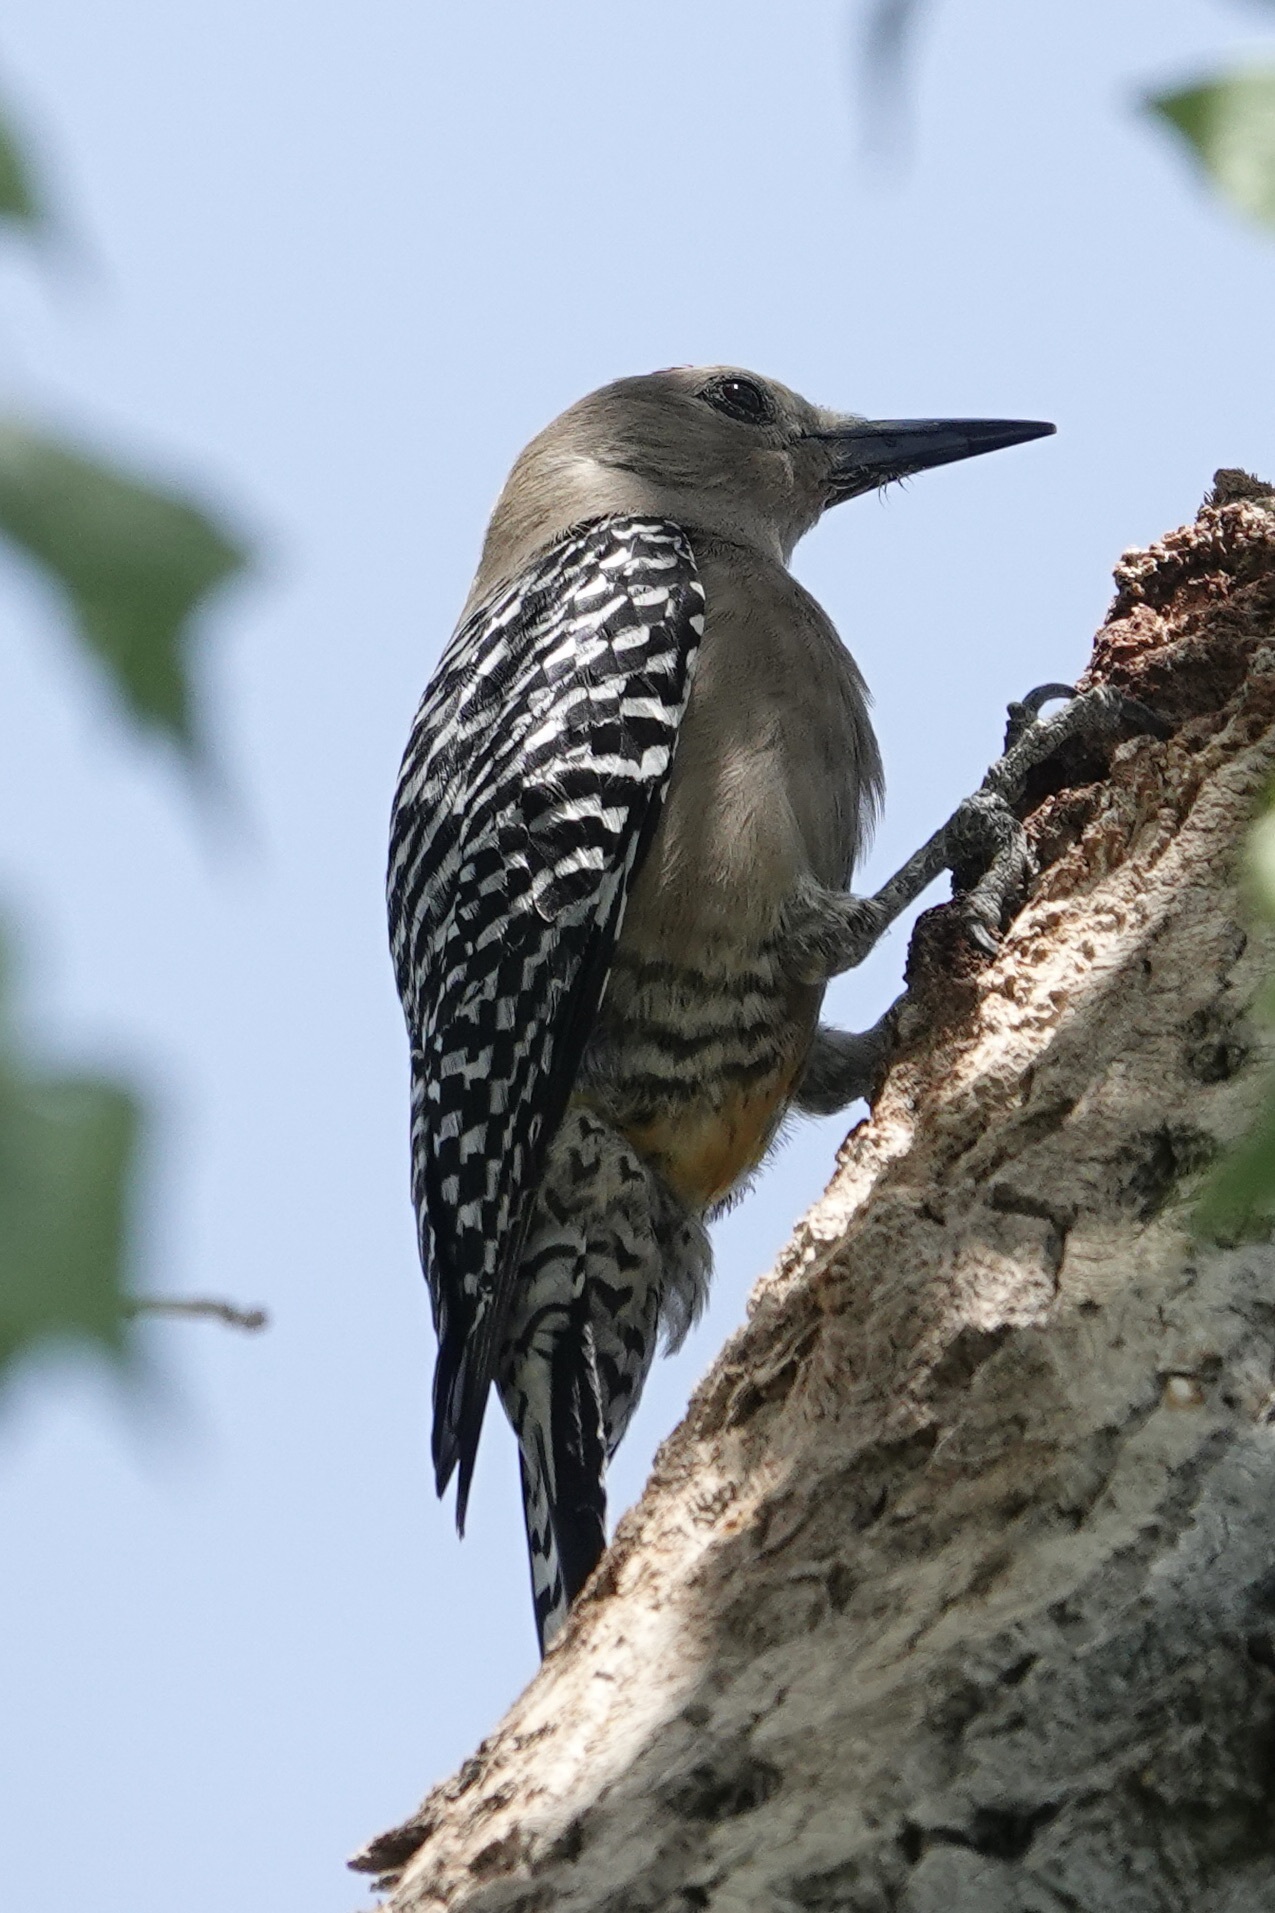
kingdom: Animalia
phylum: Chordata
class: Aves
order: Piciformes
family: Picidae
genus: Melanerpes
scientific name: Melanerpes uropygialis
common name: Gila woodpecker
